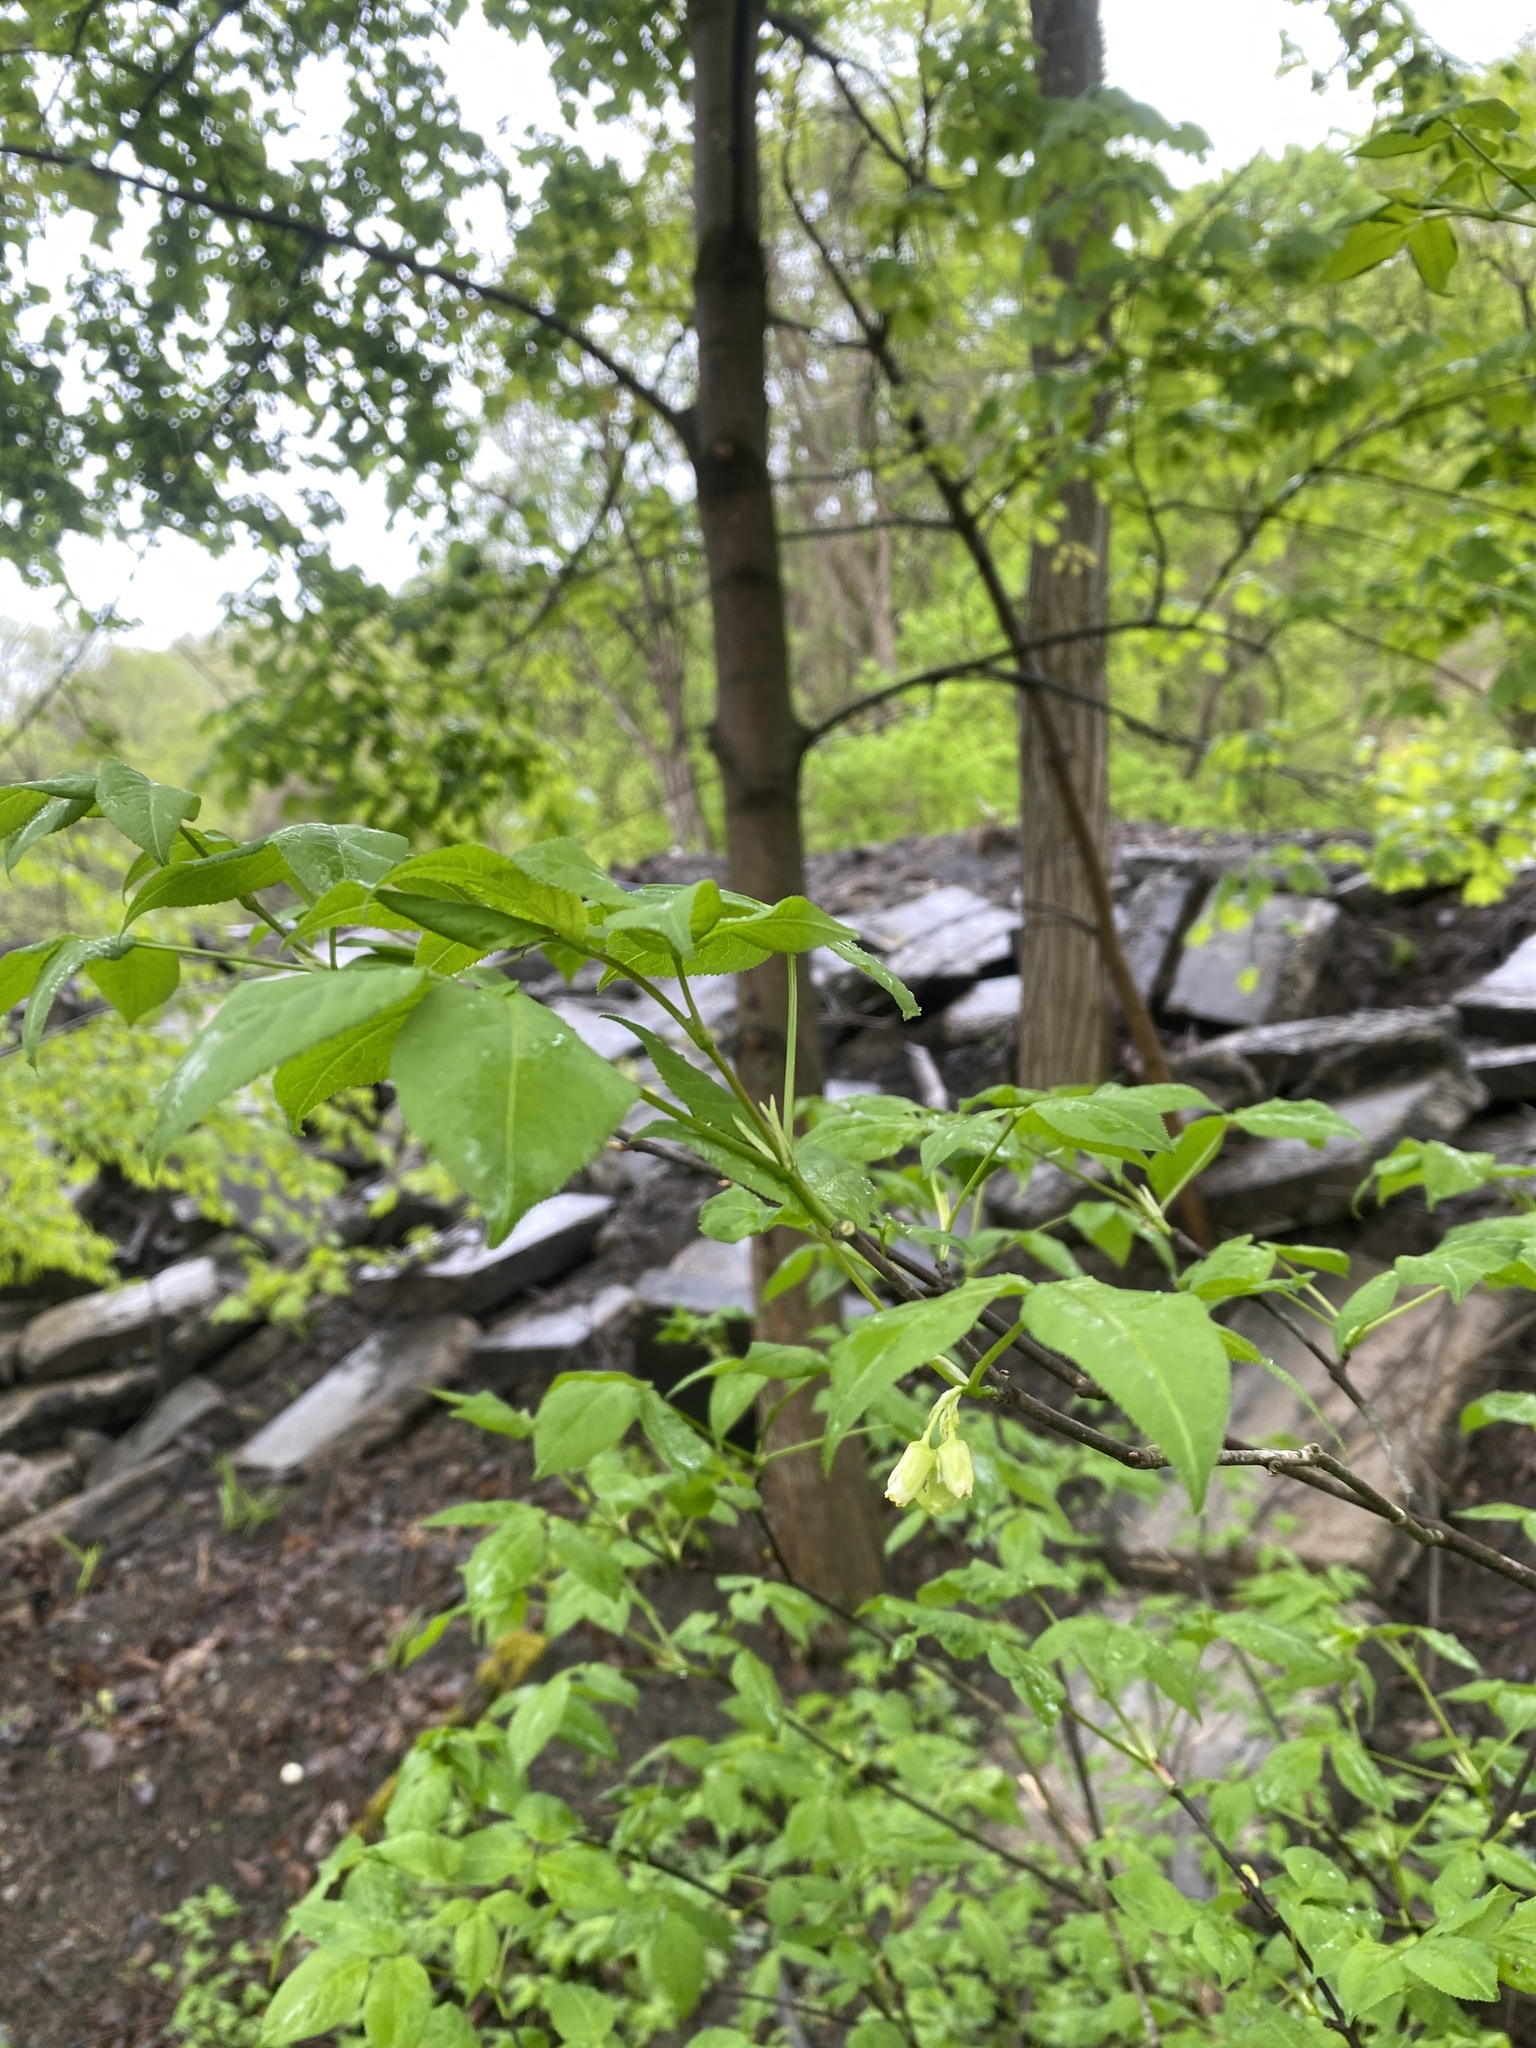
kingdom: Plantae
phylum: Tracheophyta
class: Magnoliopsida
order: Crossosomatales
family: Staphyleaceae
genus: Staphylea
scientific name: Staphylea trifolia
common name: American bladdernut
